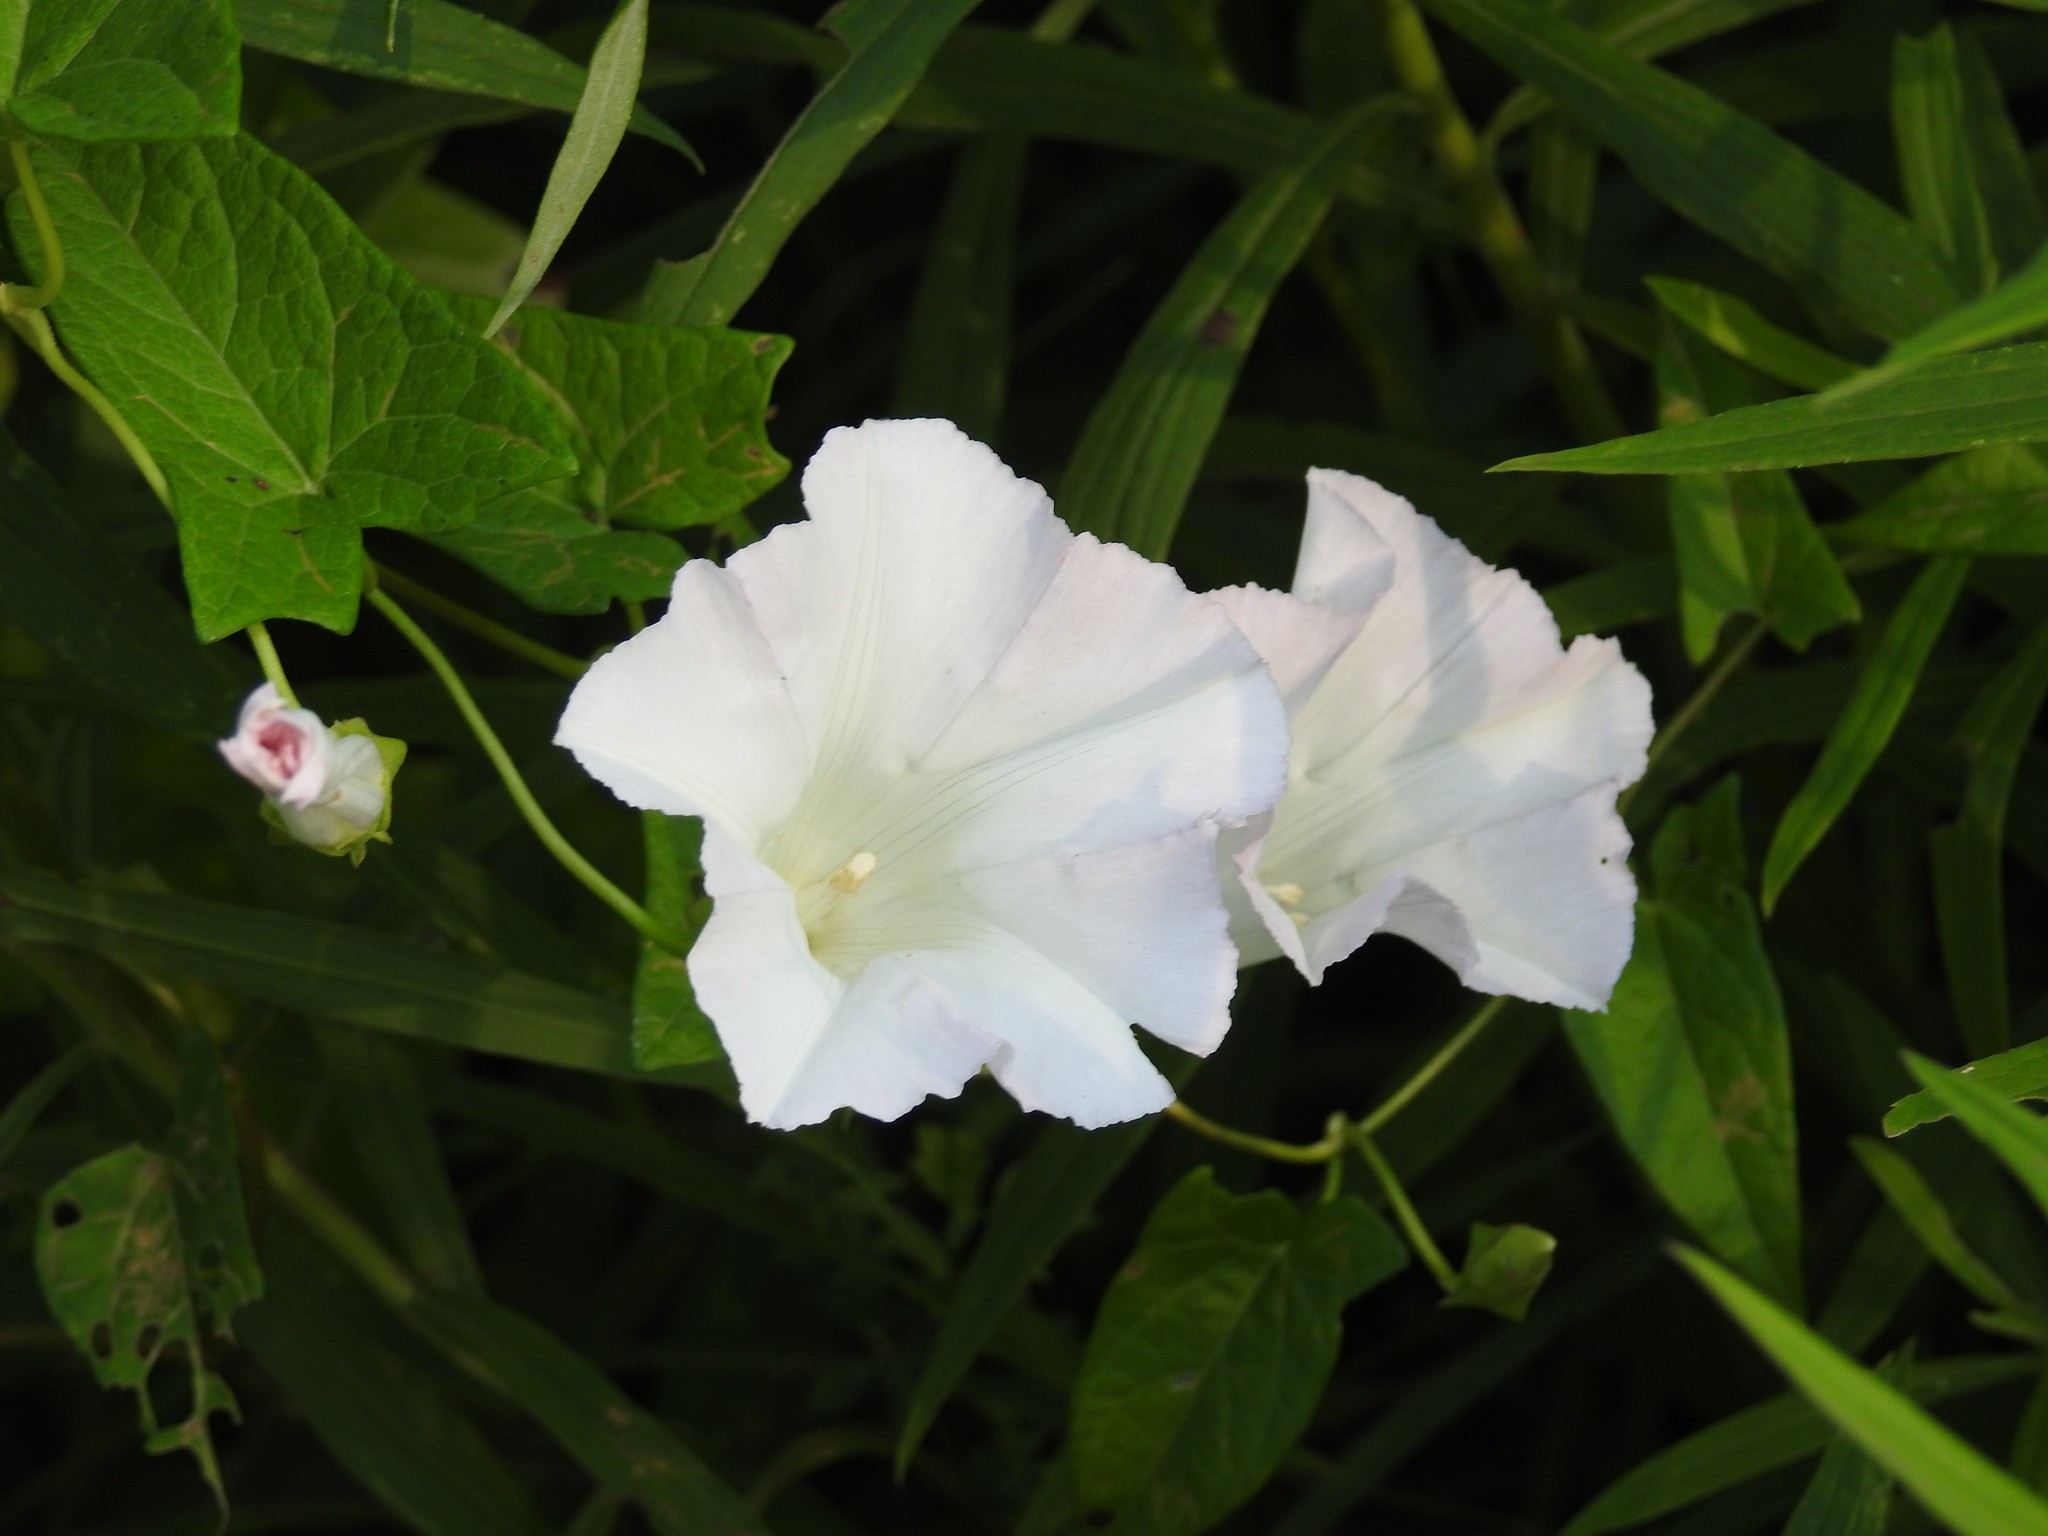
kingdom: Plantae
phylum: Tracheophyta
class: Magnoliopsida
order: Solanales
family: Convolvulaceae
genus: Calystegia
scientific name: Calystegia sepium
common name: Hedge bindweed
